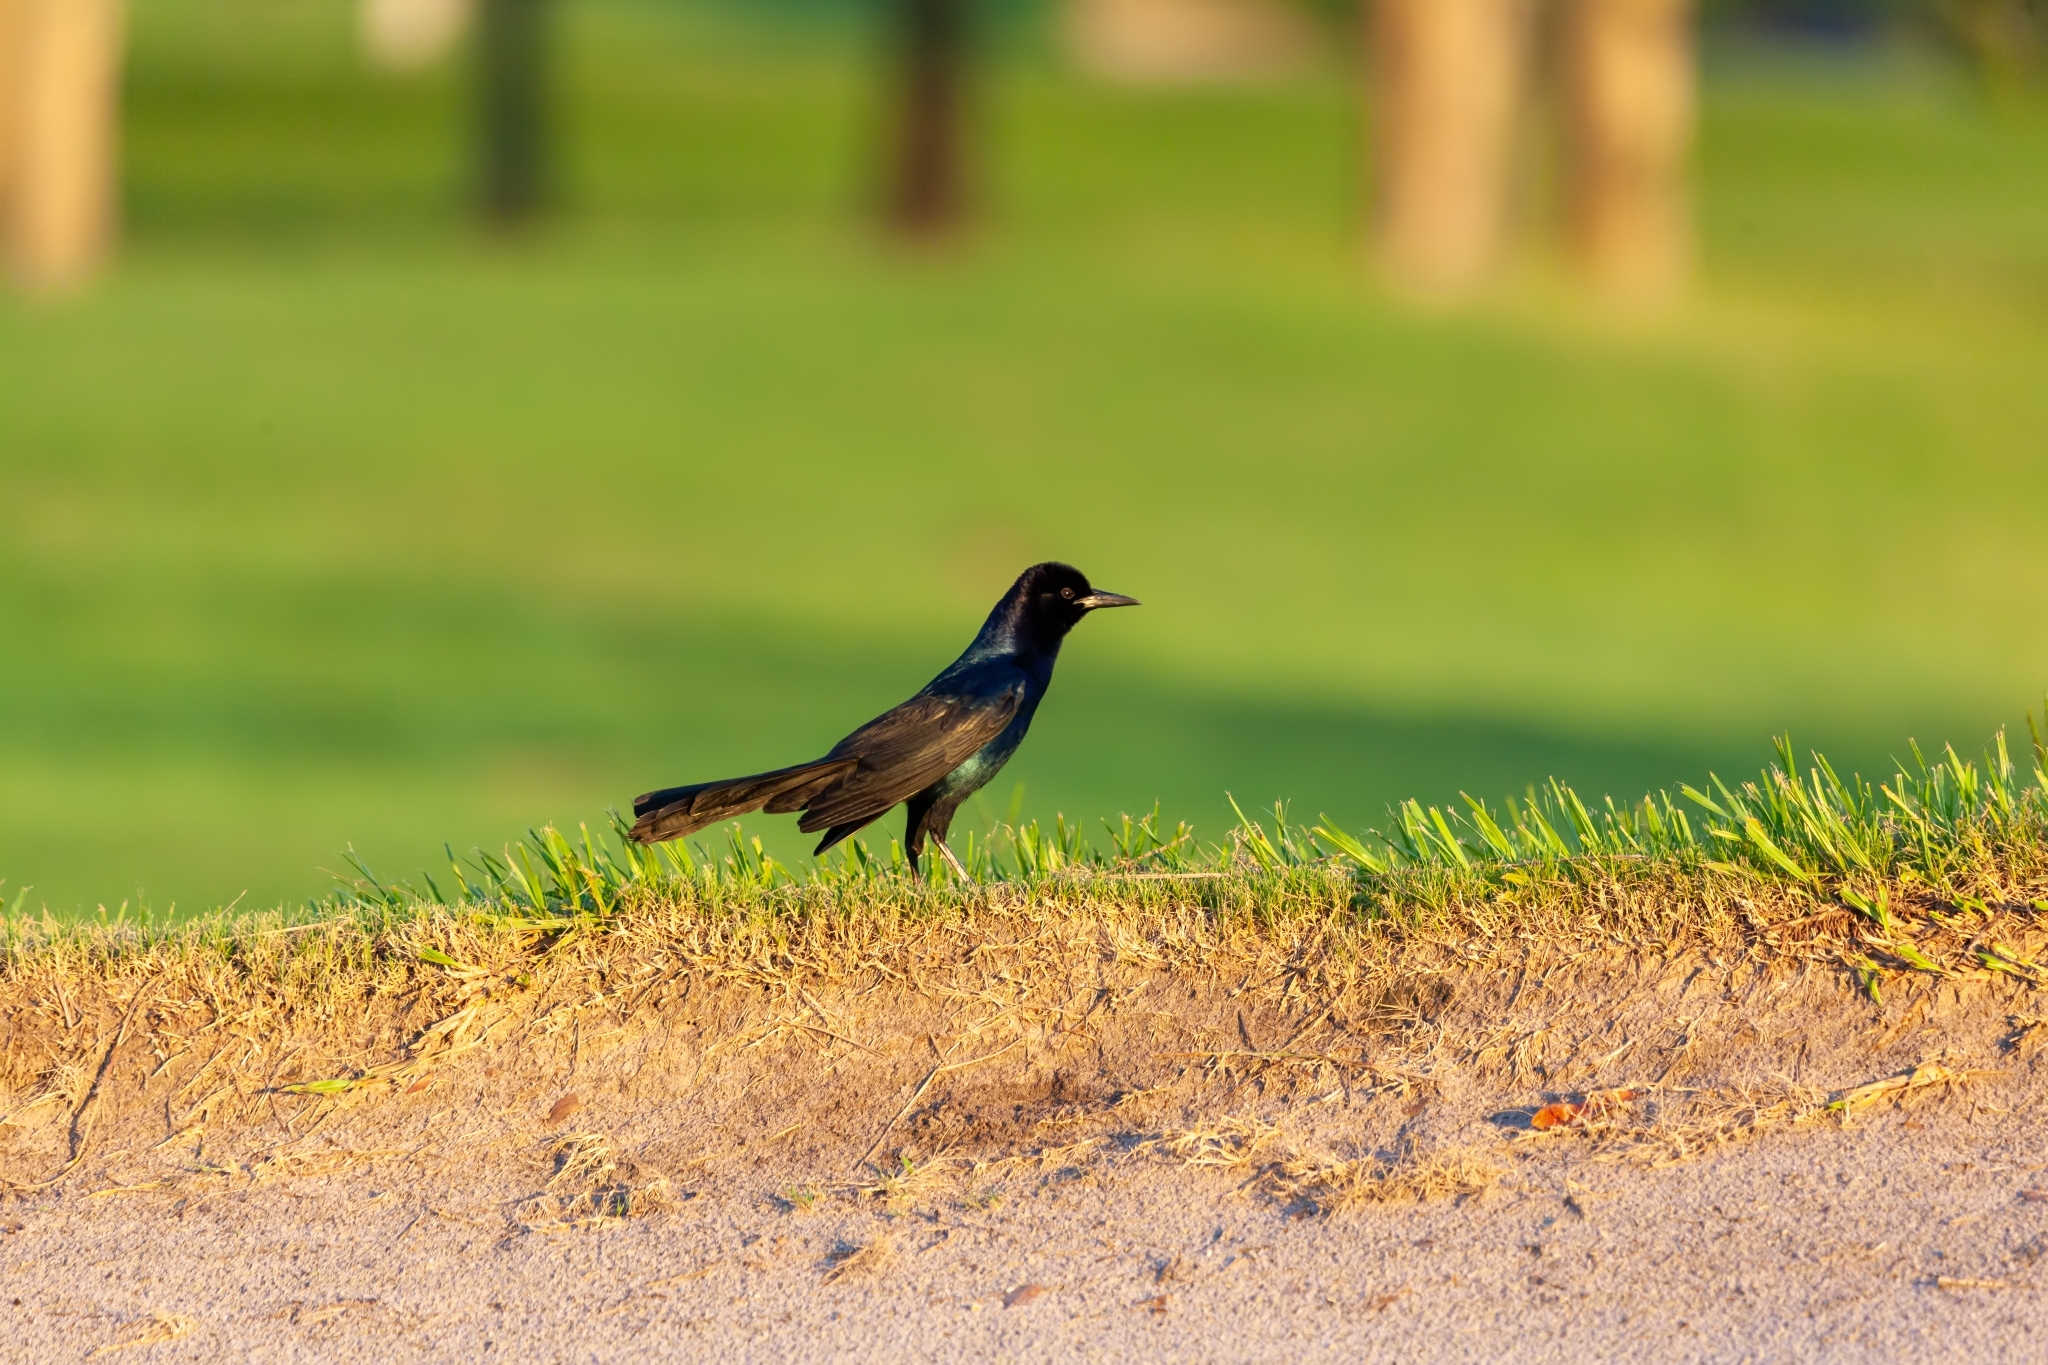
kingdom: Animalia
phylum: Chordata
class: Aves
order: Passeriformes
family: Icteridae
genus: Quiscalus
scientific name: Quiscalus major
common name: Boat-tailed grackle
